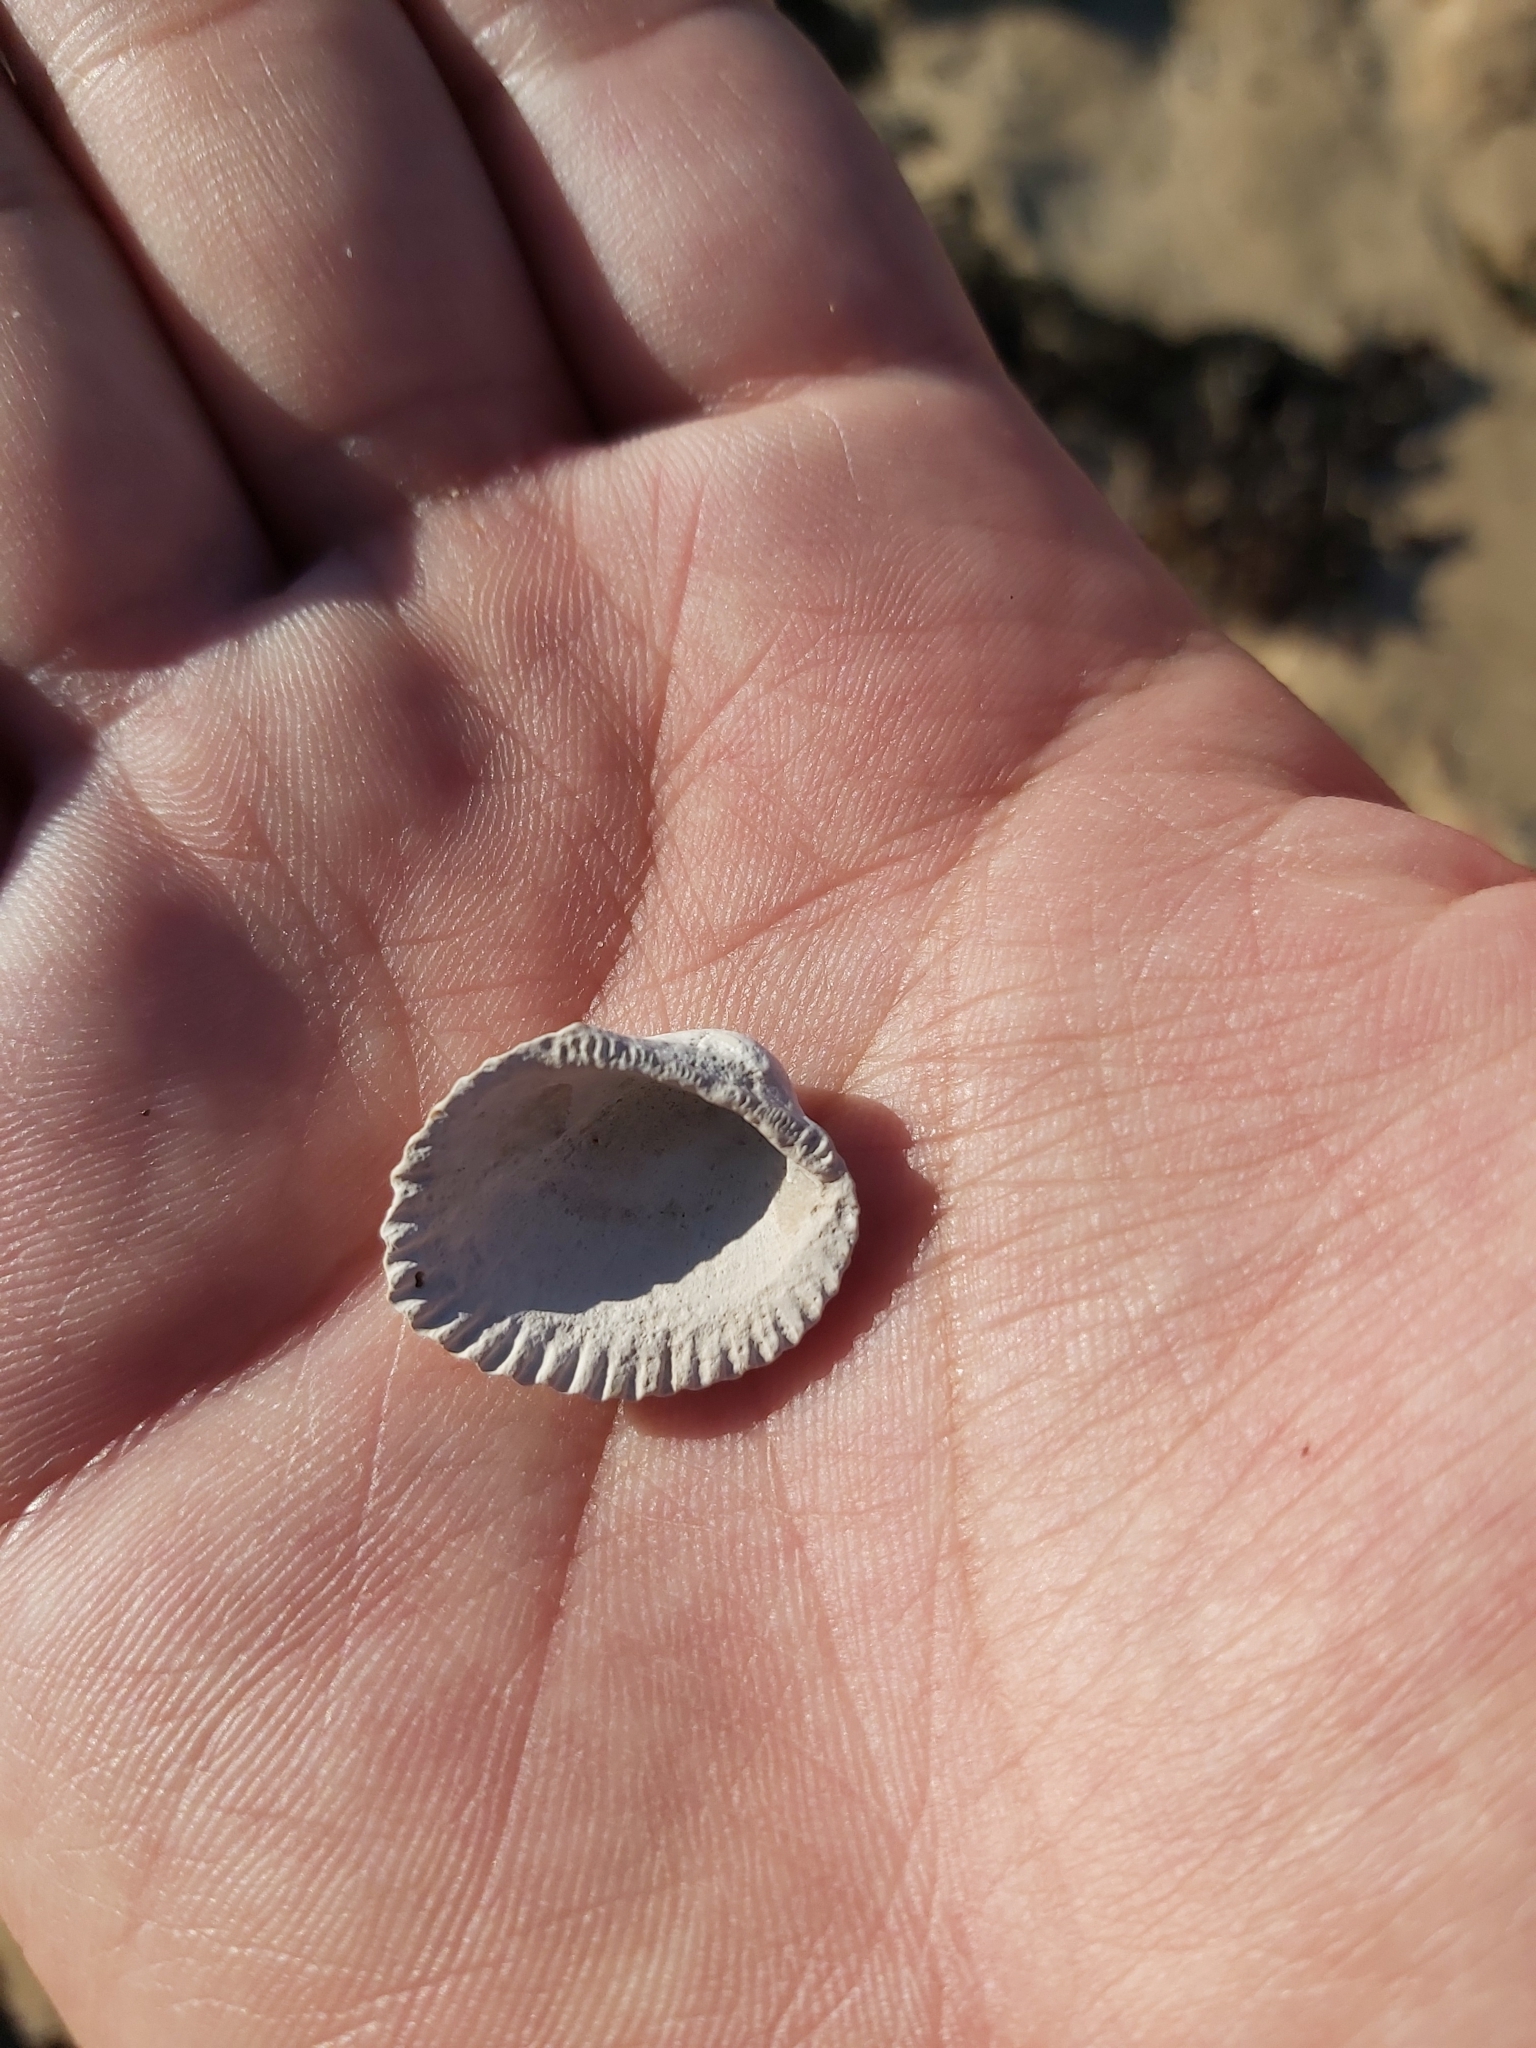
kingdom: Animalia
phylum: Mollusca
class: Bivalvia
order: Arcida
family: Arcidae
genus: Anadara
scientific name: Anadara trapezia
